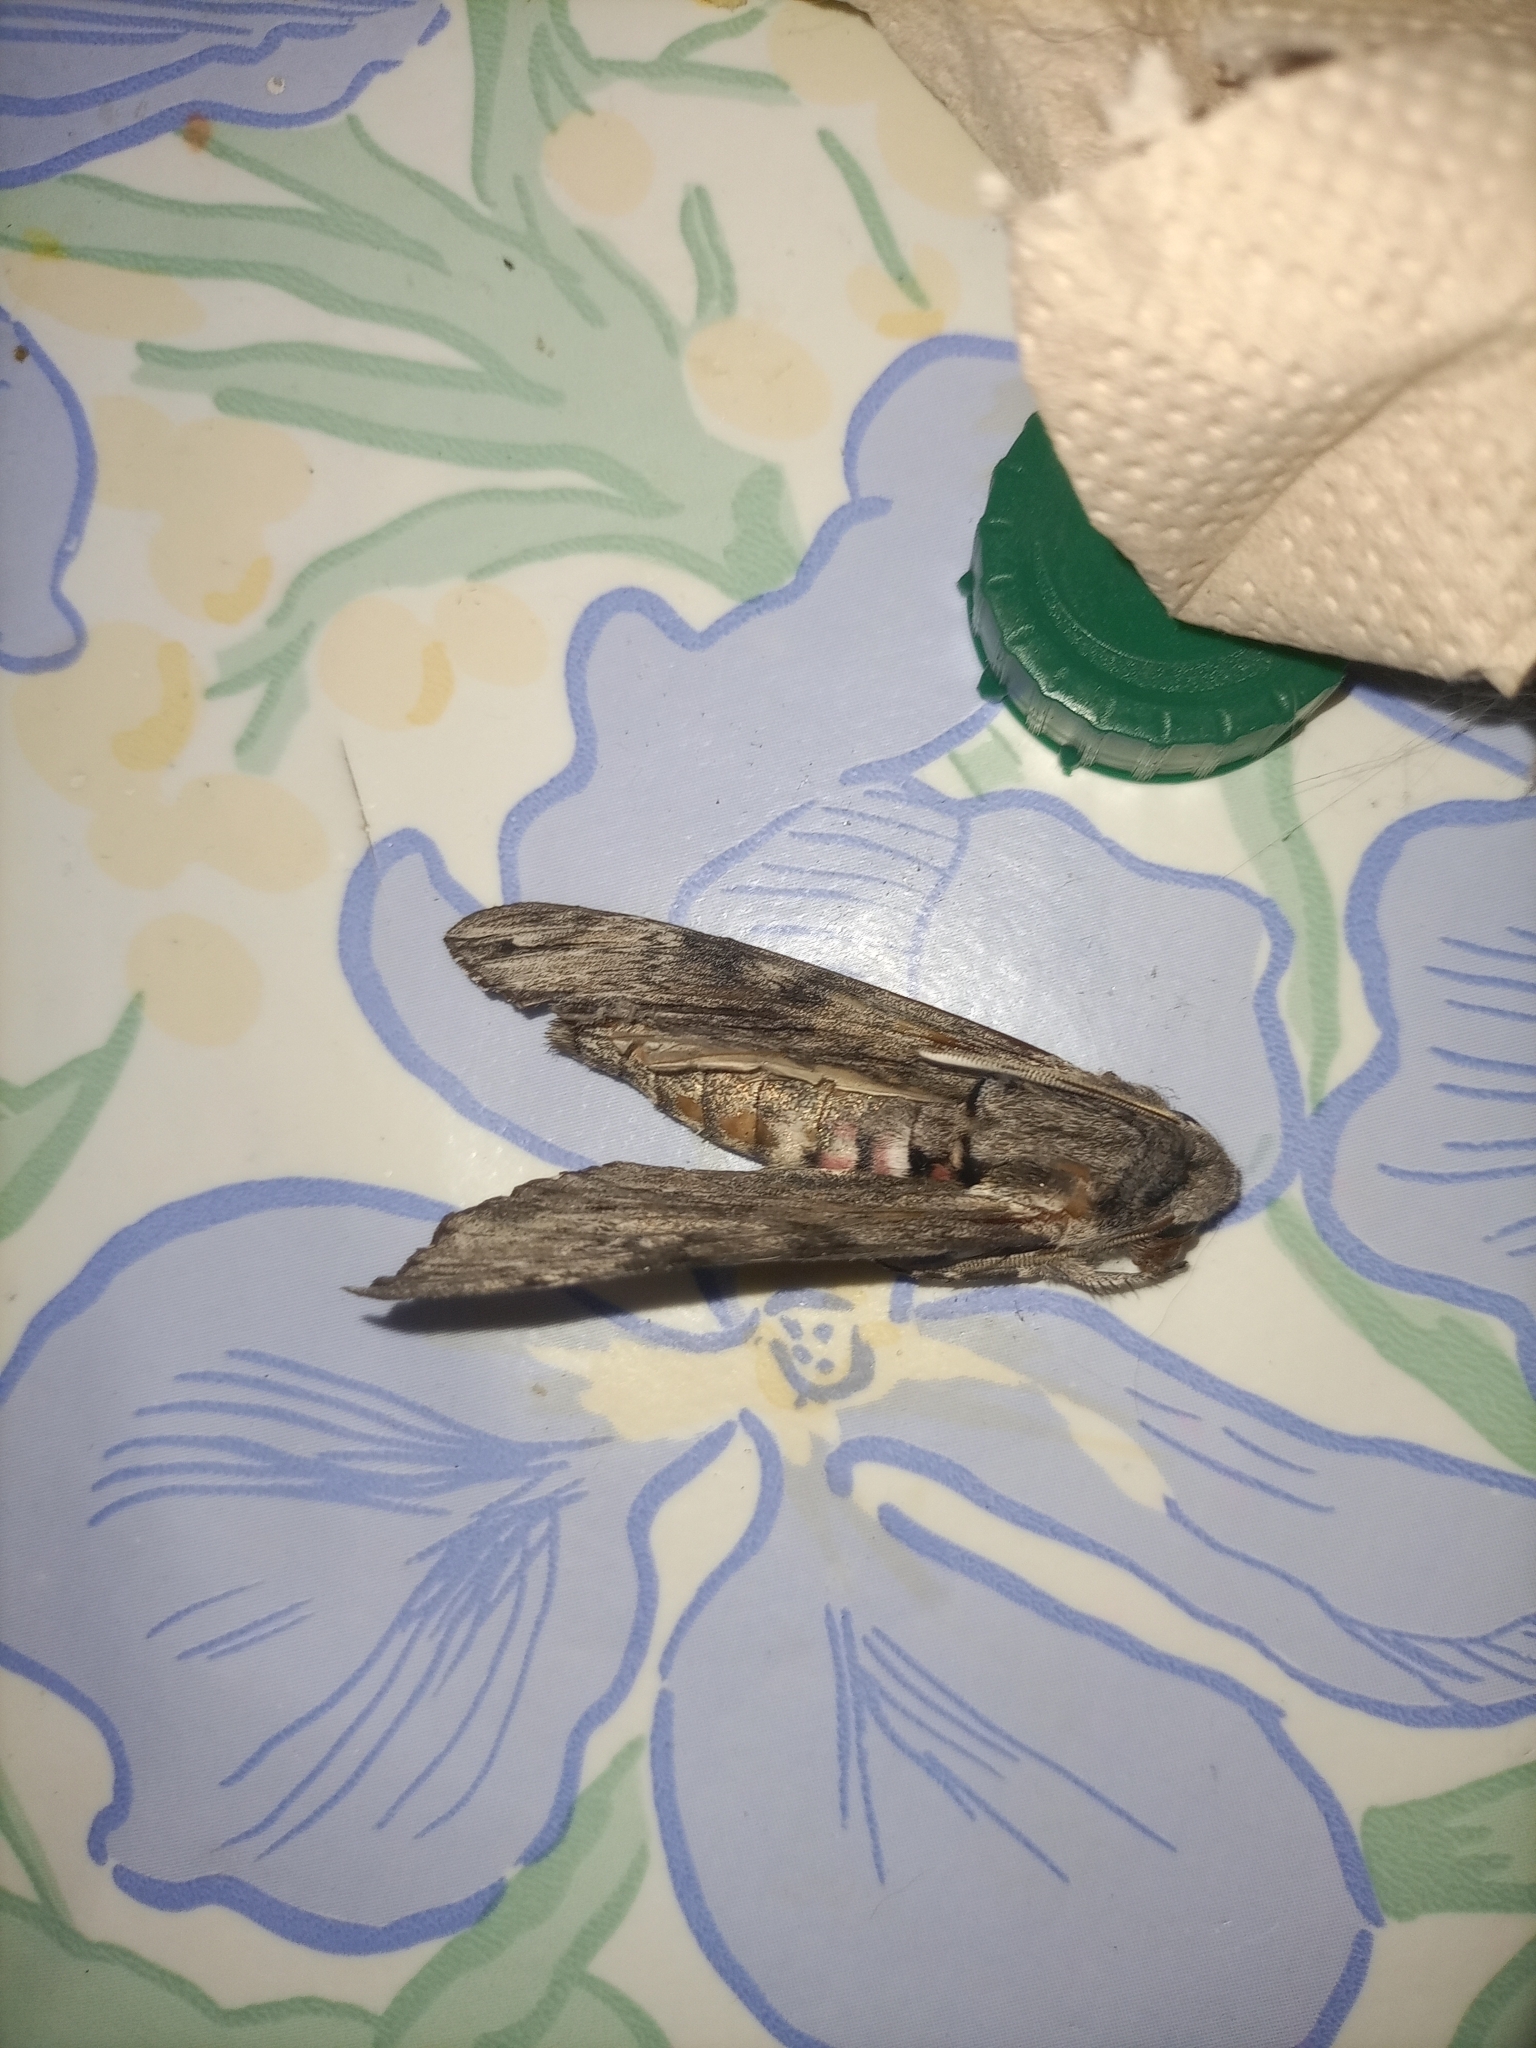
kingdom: Animalia
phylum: Arthropoda
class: Insecta
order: Lepidoptera
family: Sphingidae
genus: Agrius
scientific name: Agrius convolvuli
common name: Convolvulus hawkmoth
